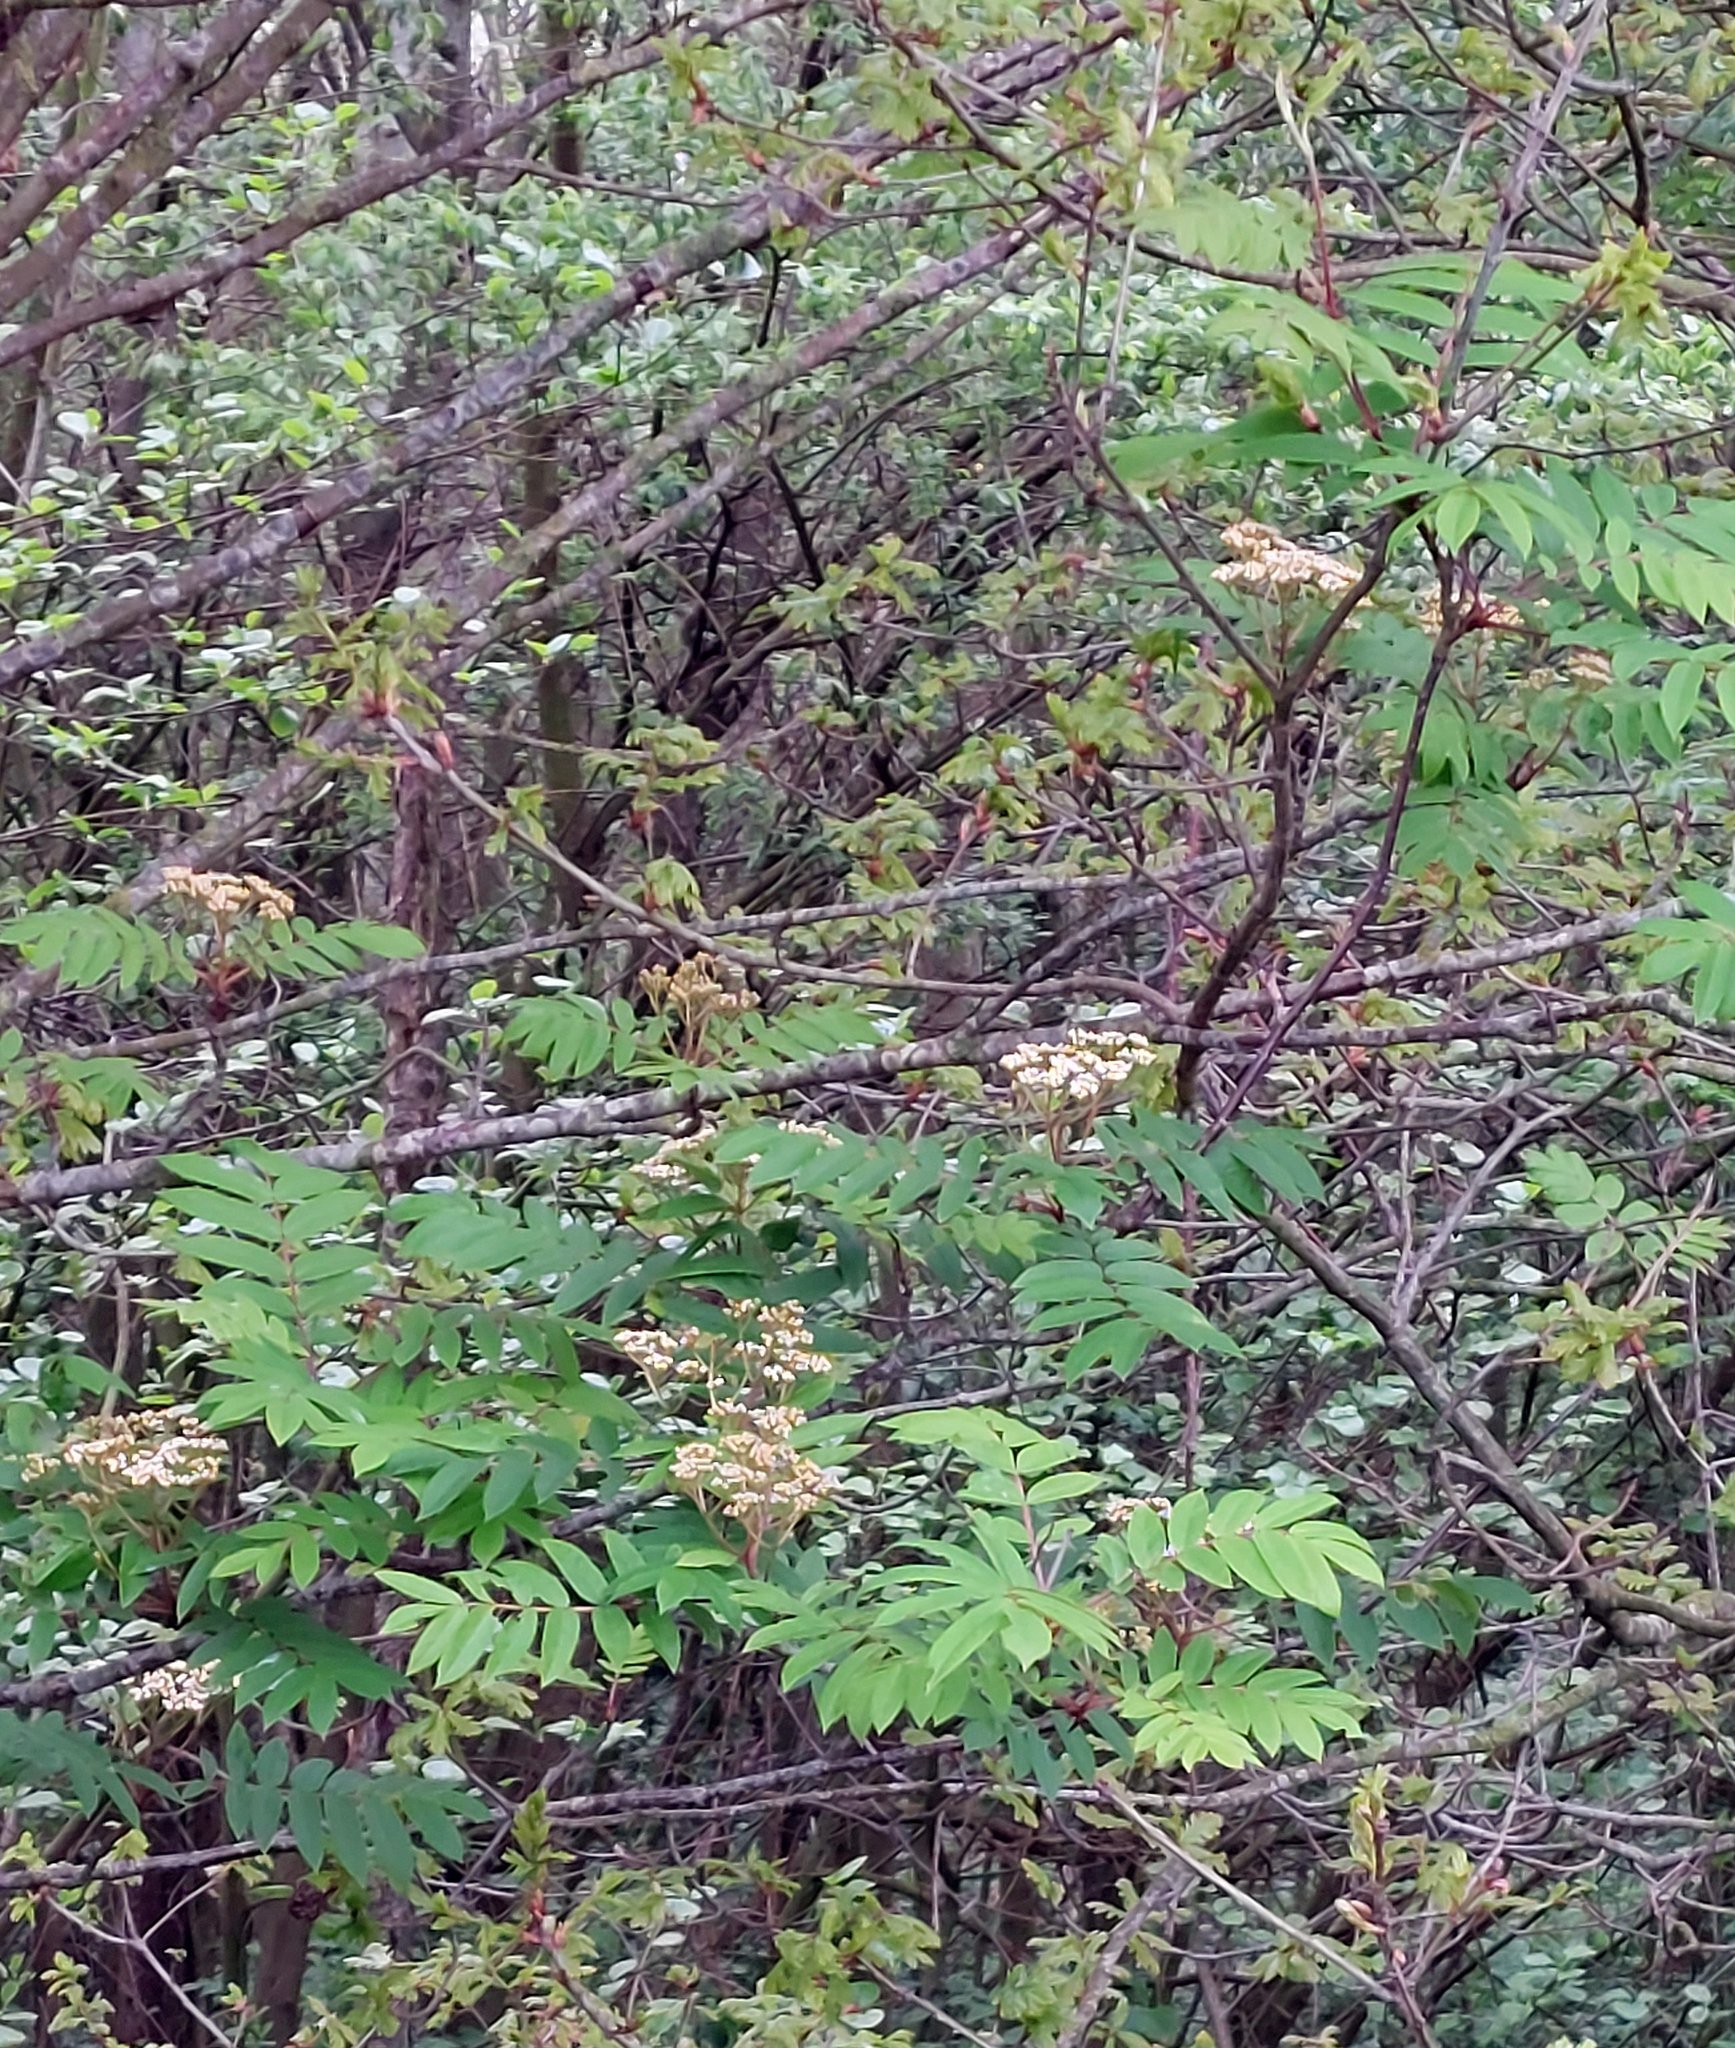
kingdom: Plantae
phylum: Tracheophyta
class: Magnoliopsida
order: Rosales
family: Rosaceae
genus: Sorbus
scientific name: Sorbus aucuparia
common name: Rowan
